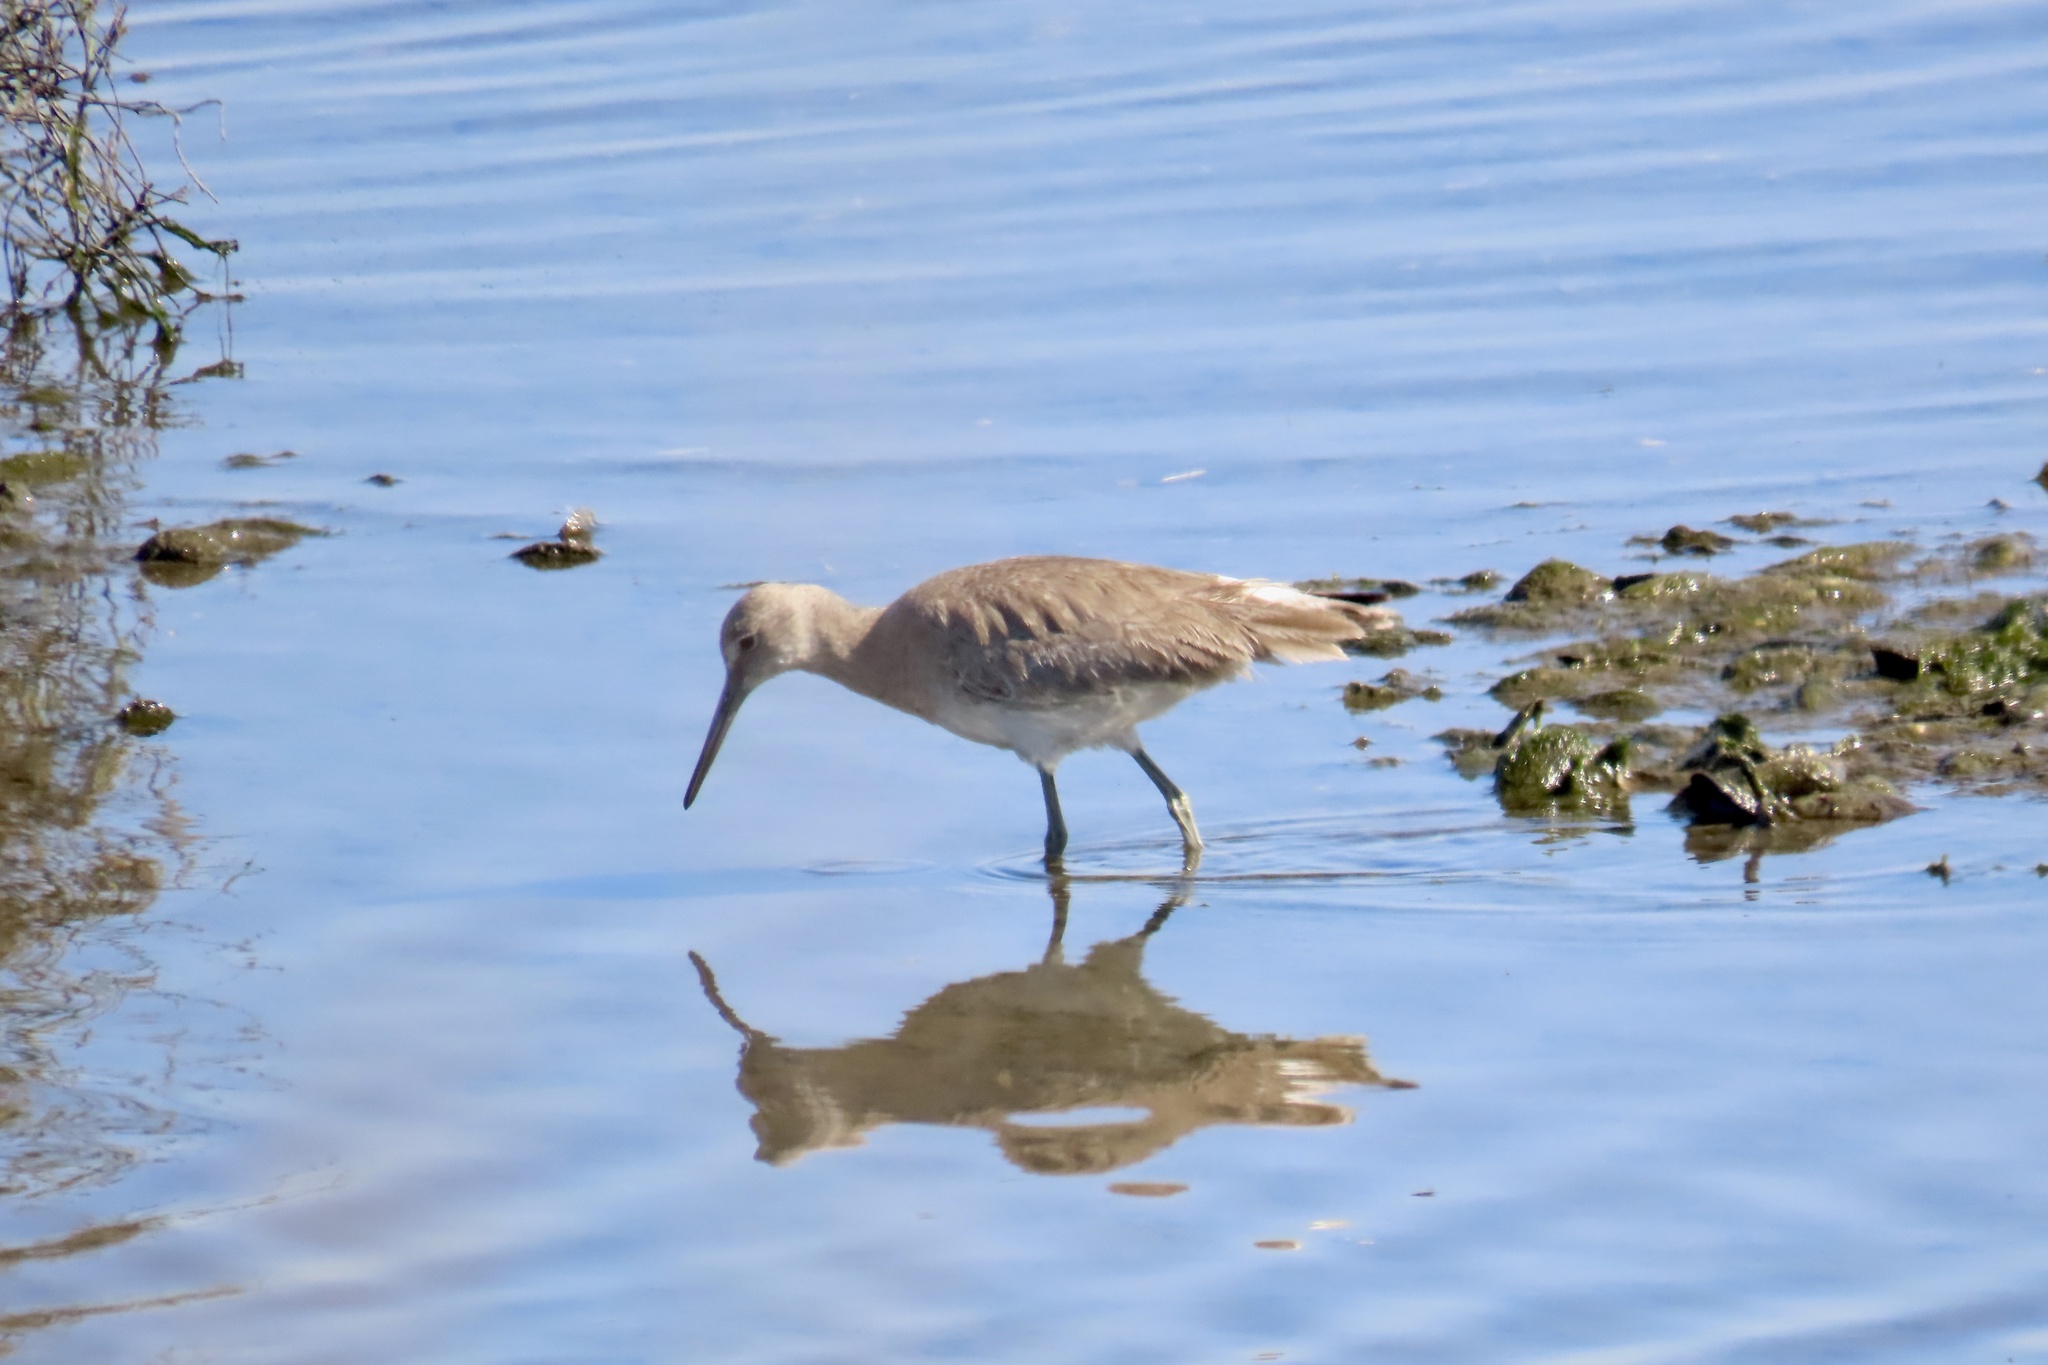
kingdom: Animalia
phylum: Chordata
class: Aves
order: Charadriiformes
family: Scolopacidae
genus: Tringa
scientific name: Tringa semipalmata
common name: Willet
